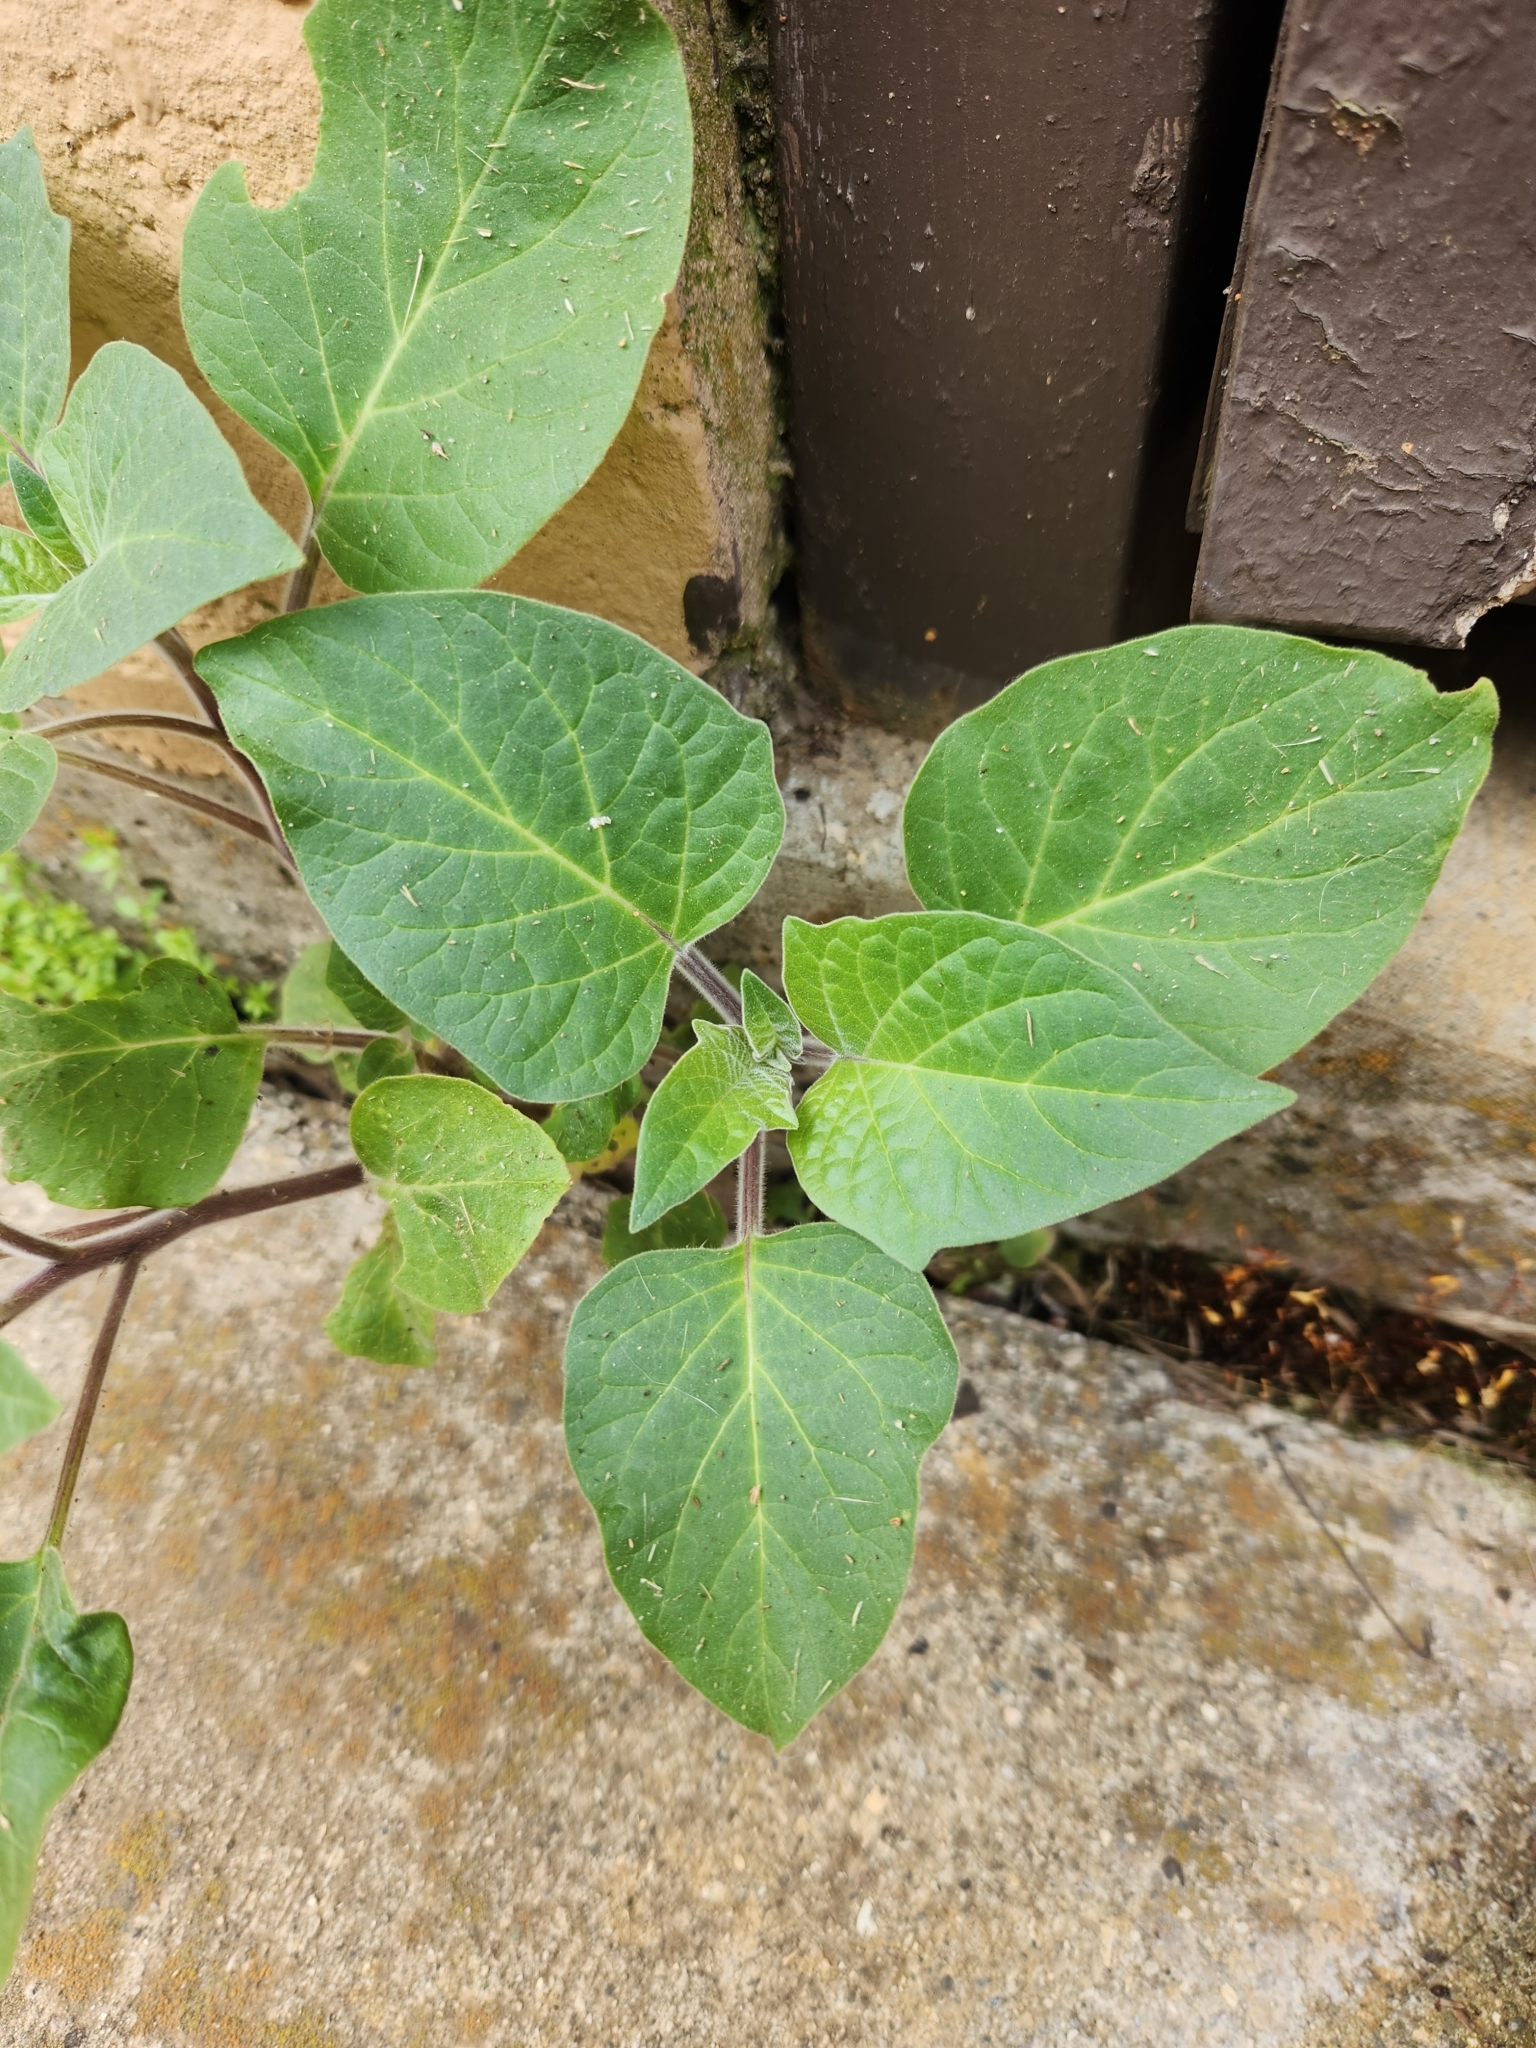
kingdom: Plantae
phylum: Tracheophyta
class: Magnoliopsida
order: Solanales
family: Solanaceae
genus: Datura
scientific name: Datura wrightii
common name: Sacred thorn-apple
